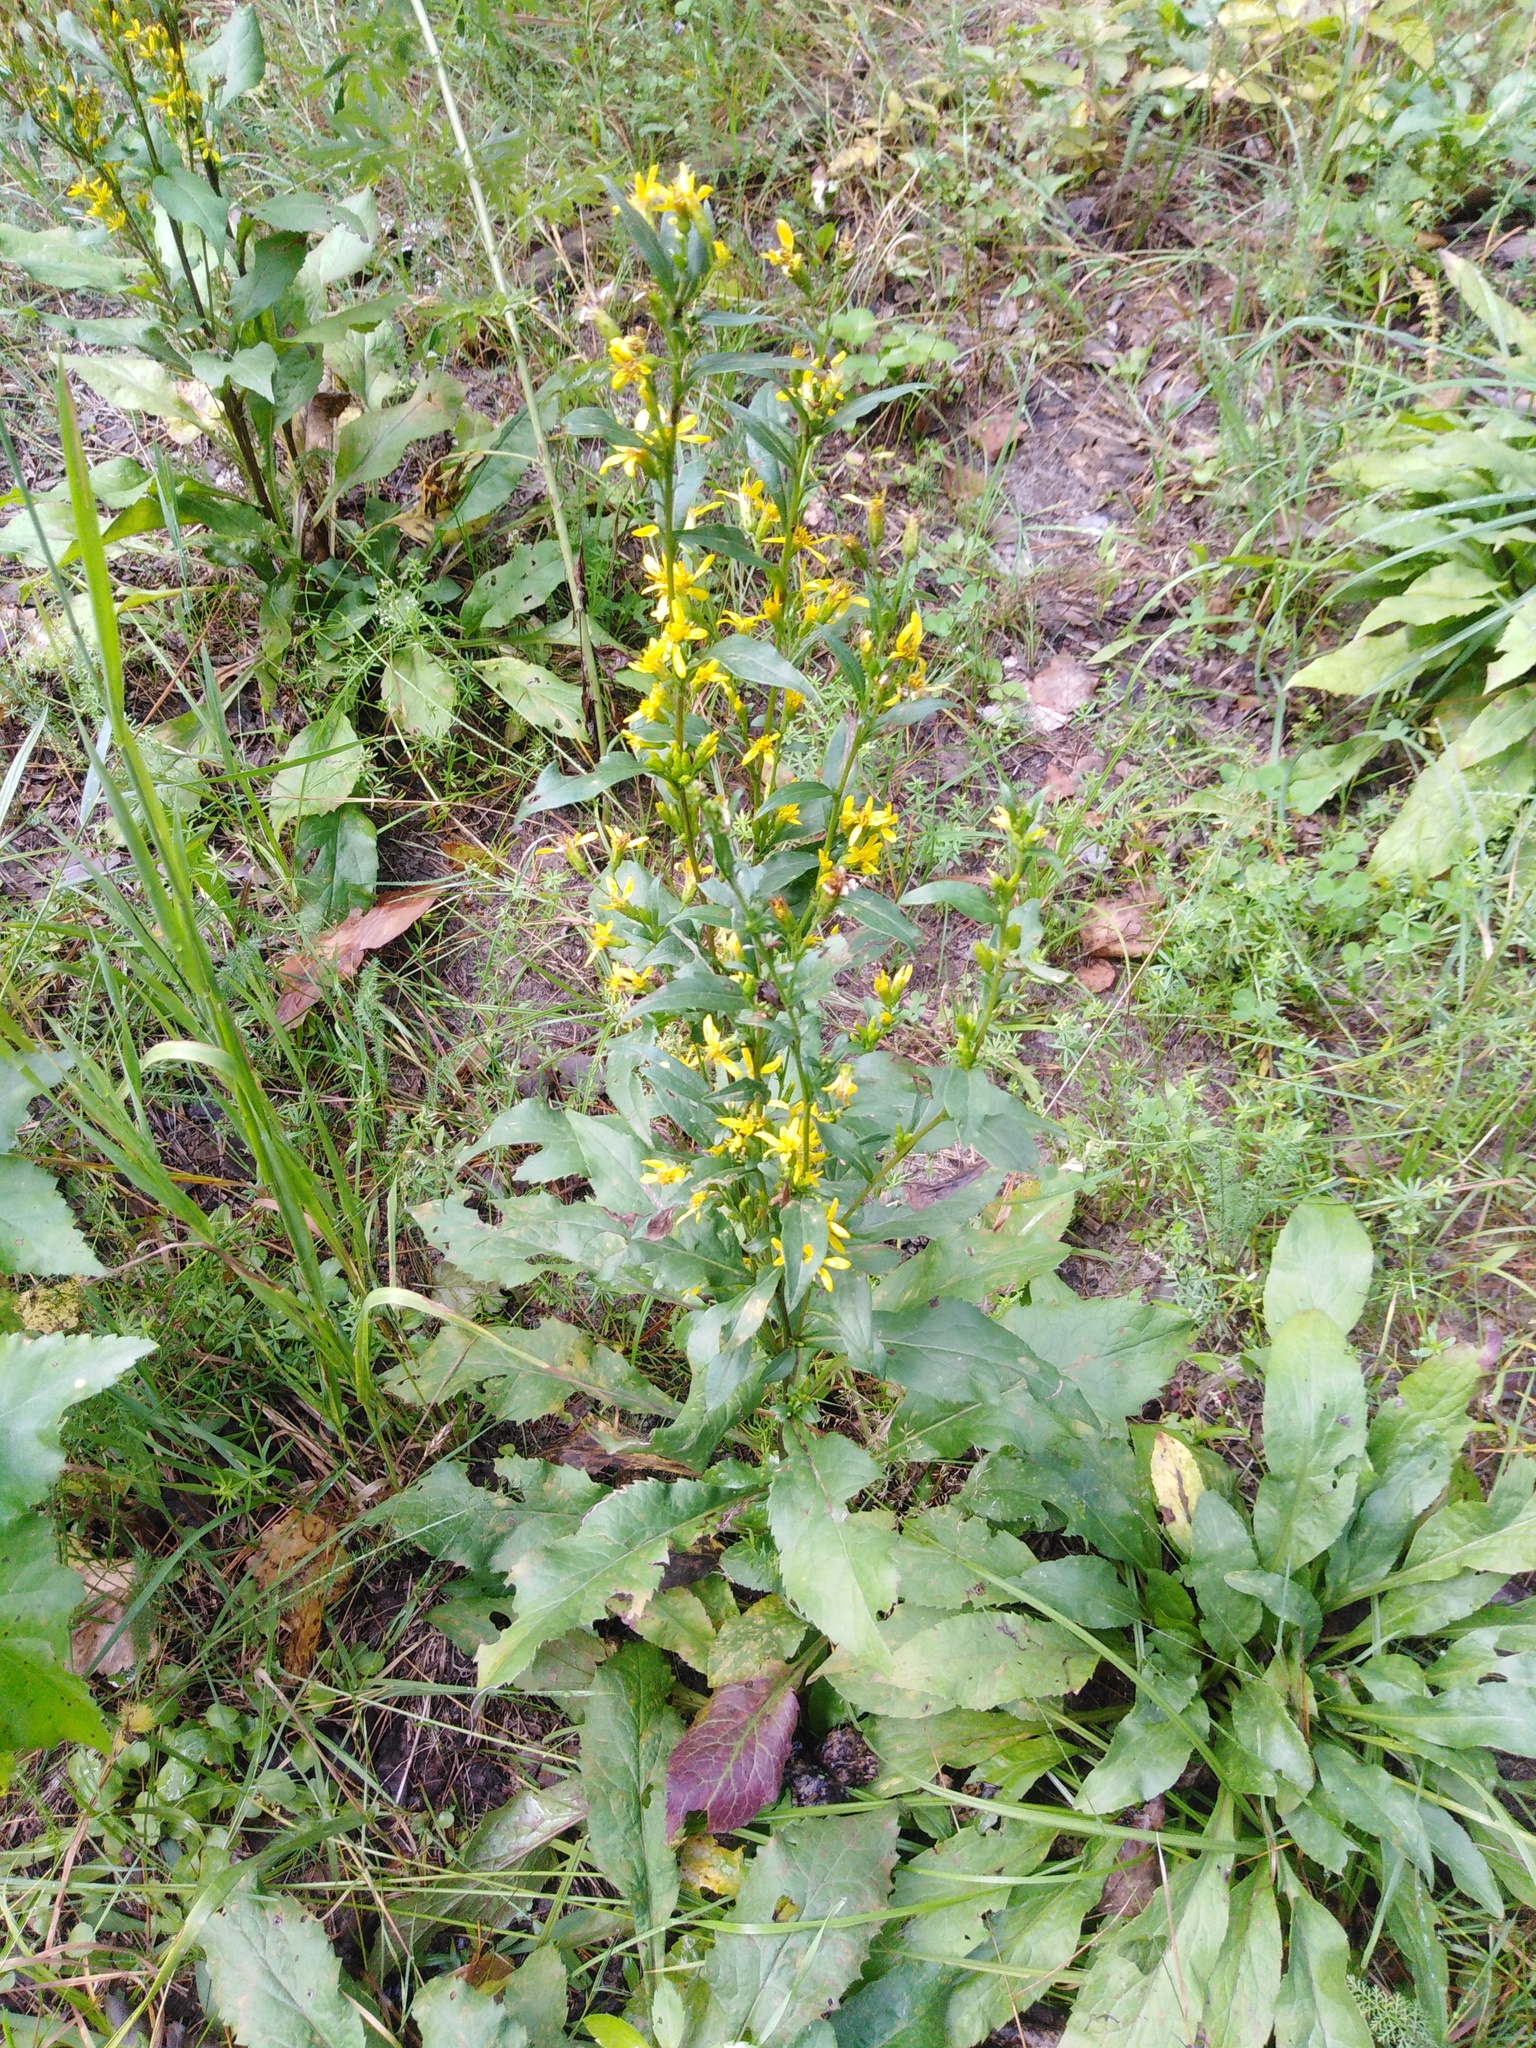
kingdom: Plantae
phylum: Tracheophyta
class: Magnoliopsida
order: Asterales
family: Asteraceae
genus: Solidago
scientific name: Solidago virgaurea
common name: Goldenrod
